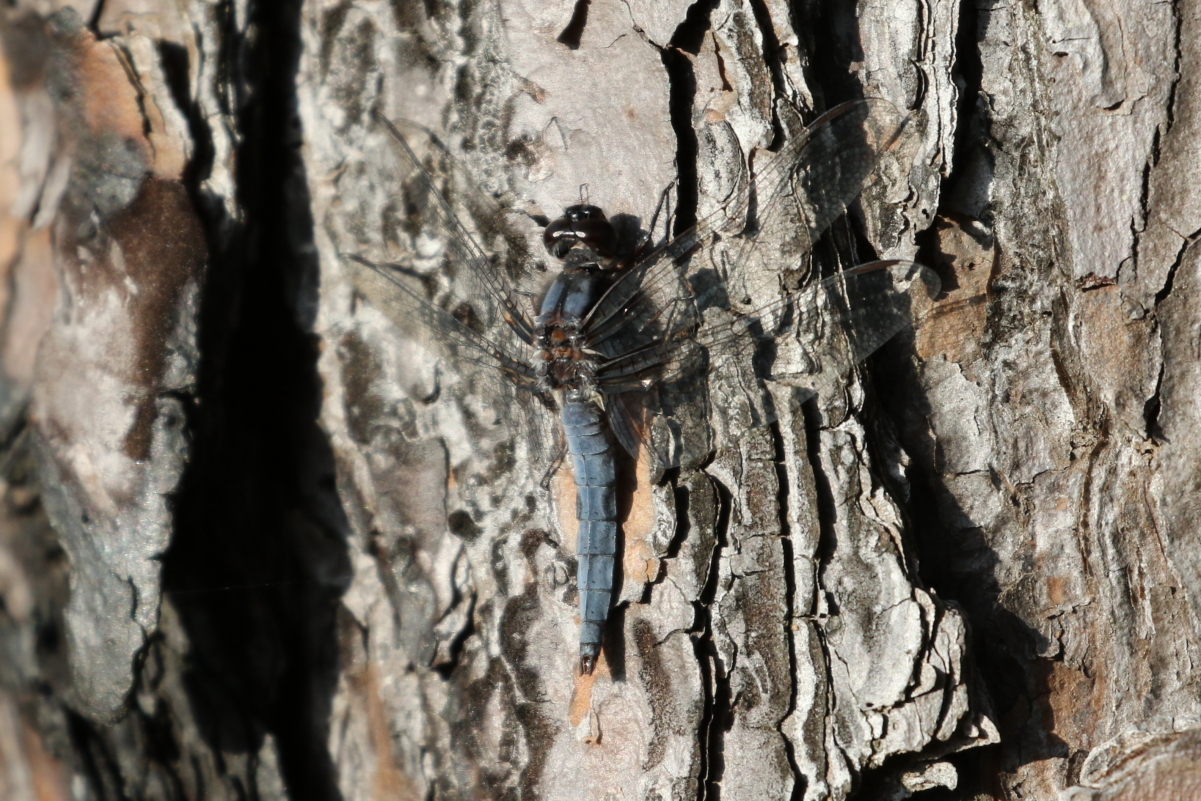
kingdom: Animalia
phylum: Arthropoda
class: Insecta
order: Odonata
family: Libellulidae
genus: Ladona
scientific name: Ladona deplanata
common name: Blue corporal
